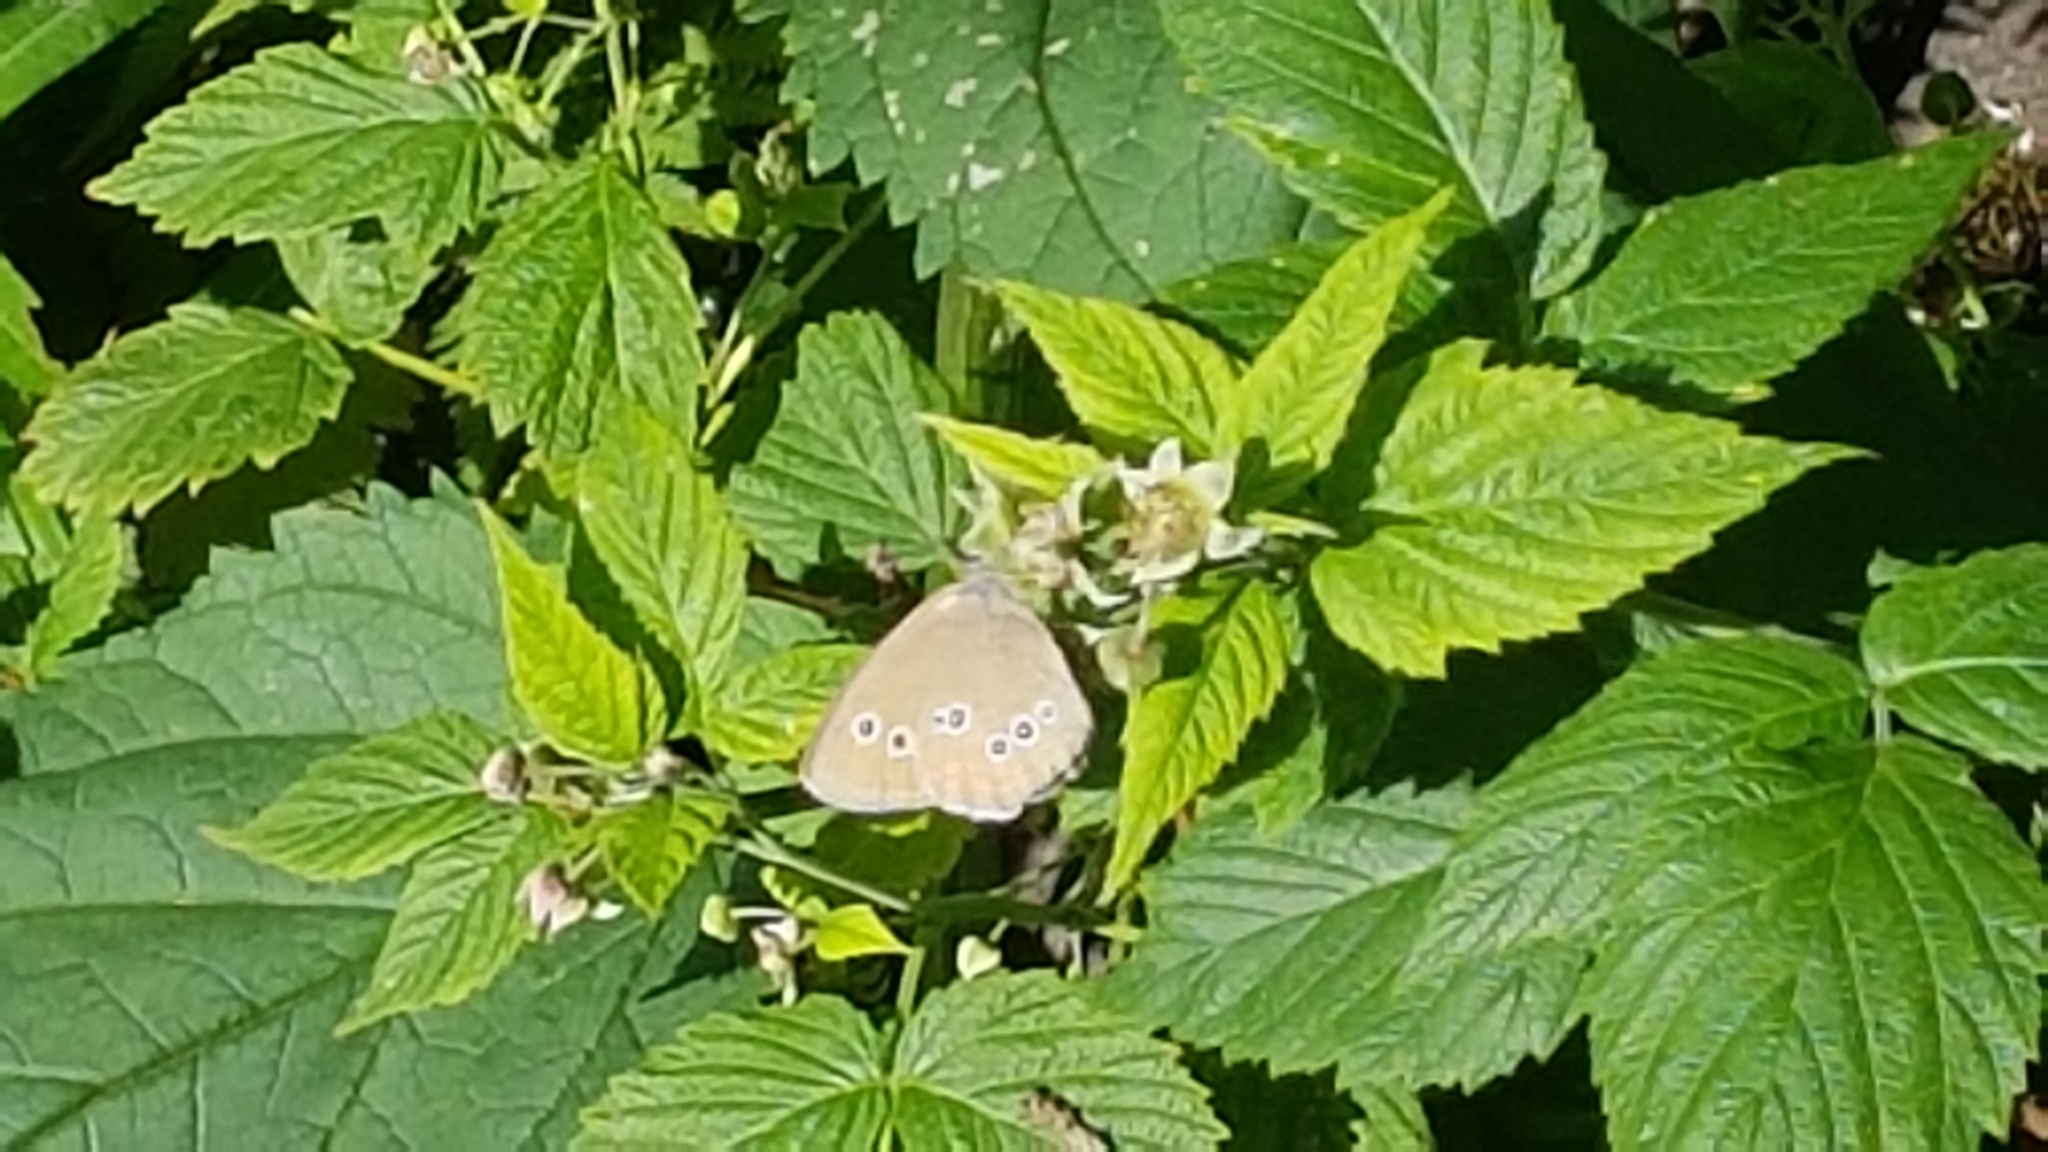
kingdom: Animalia
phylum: Arthropoda
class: Insecta
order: Lepidoptera
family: Nymphalidae
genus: Aphantopus
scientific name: Aphantopus hyperantus
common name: Ringlet
